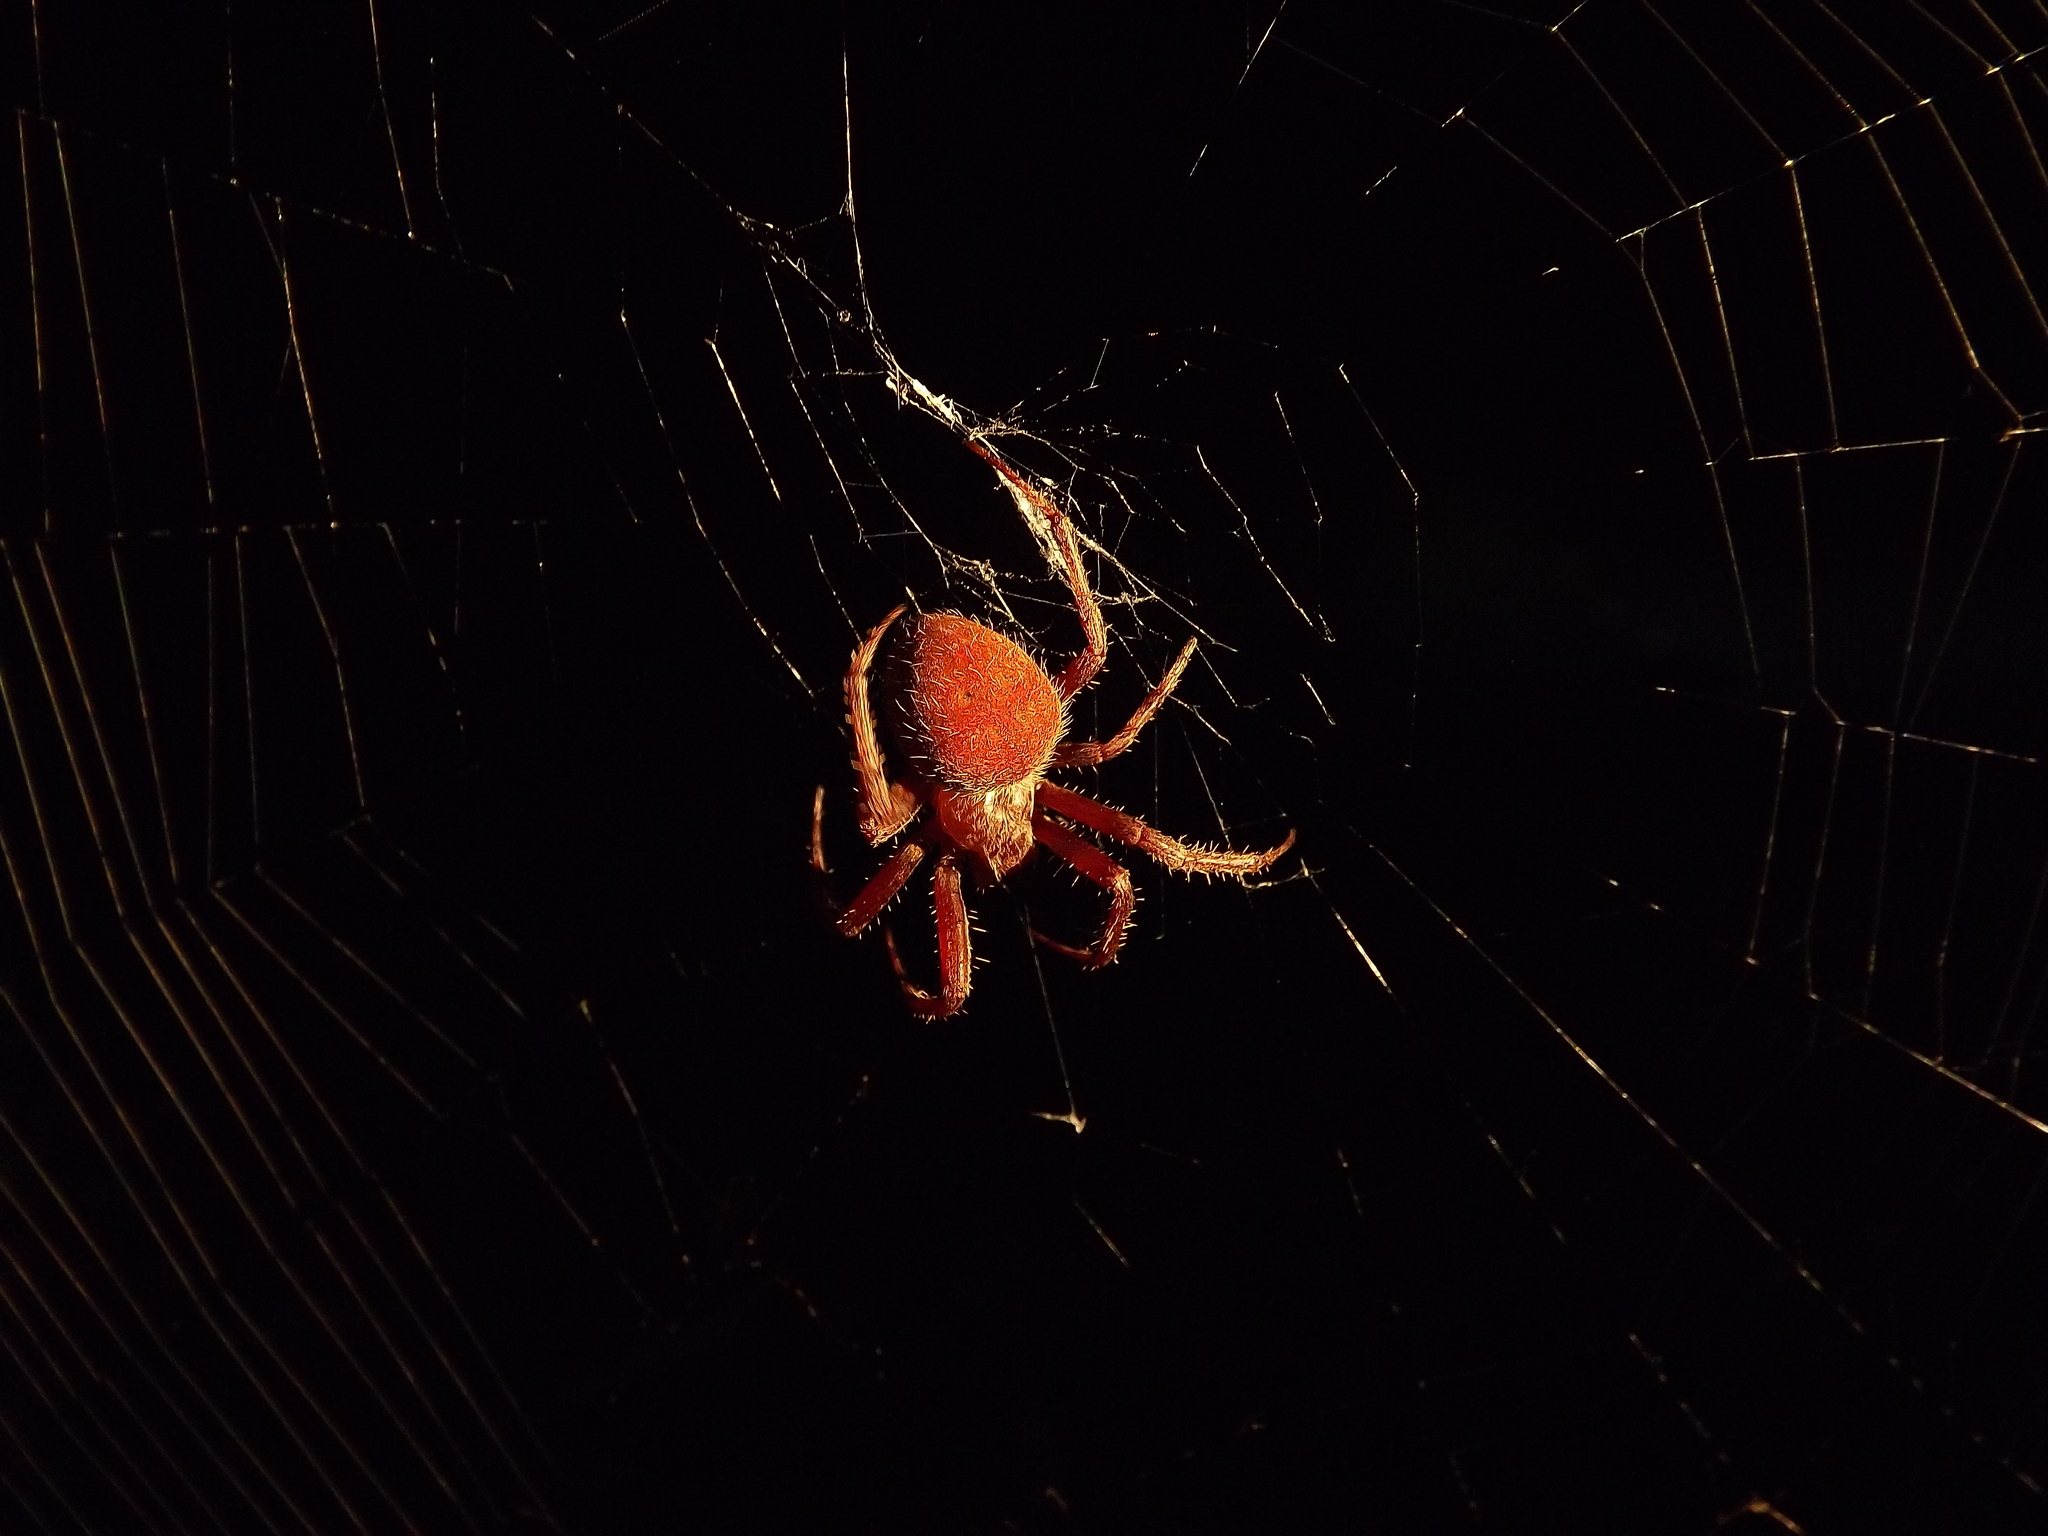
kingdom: Animalia
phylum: Arthropoda
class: Arachnida
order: Araneae
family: Araneidae
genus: Neoscona
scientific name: Neoscona crucifera
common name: Spotted orbweaver
